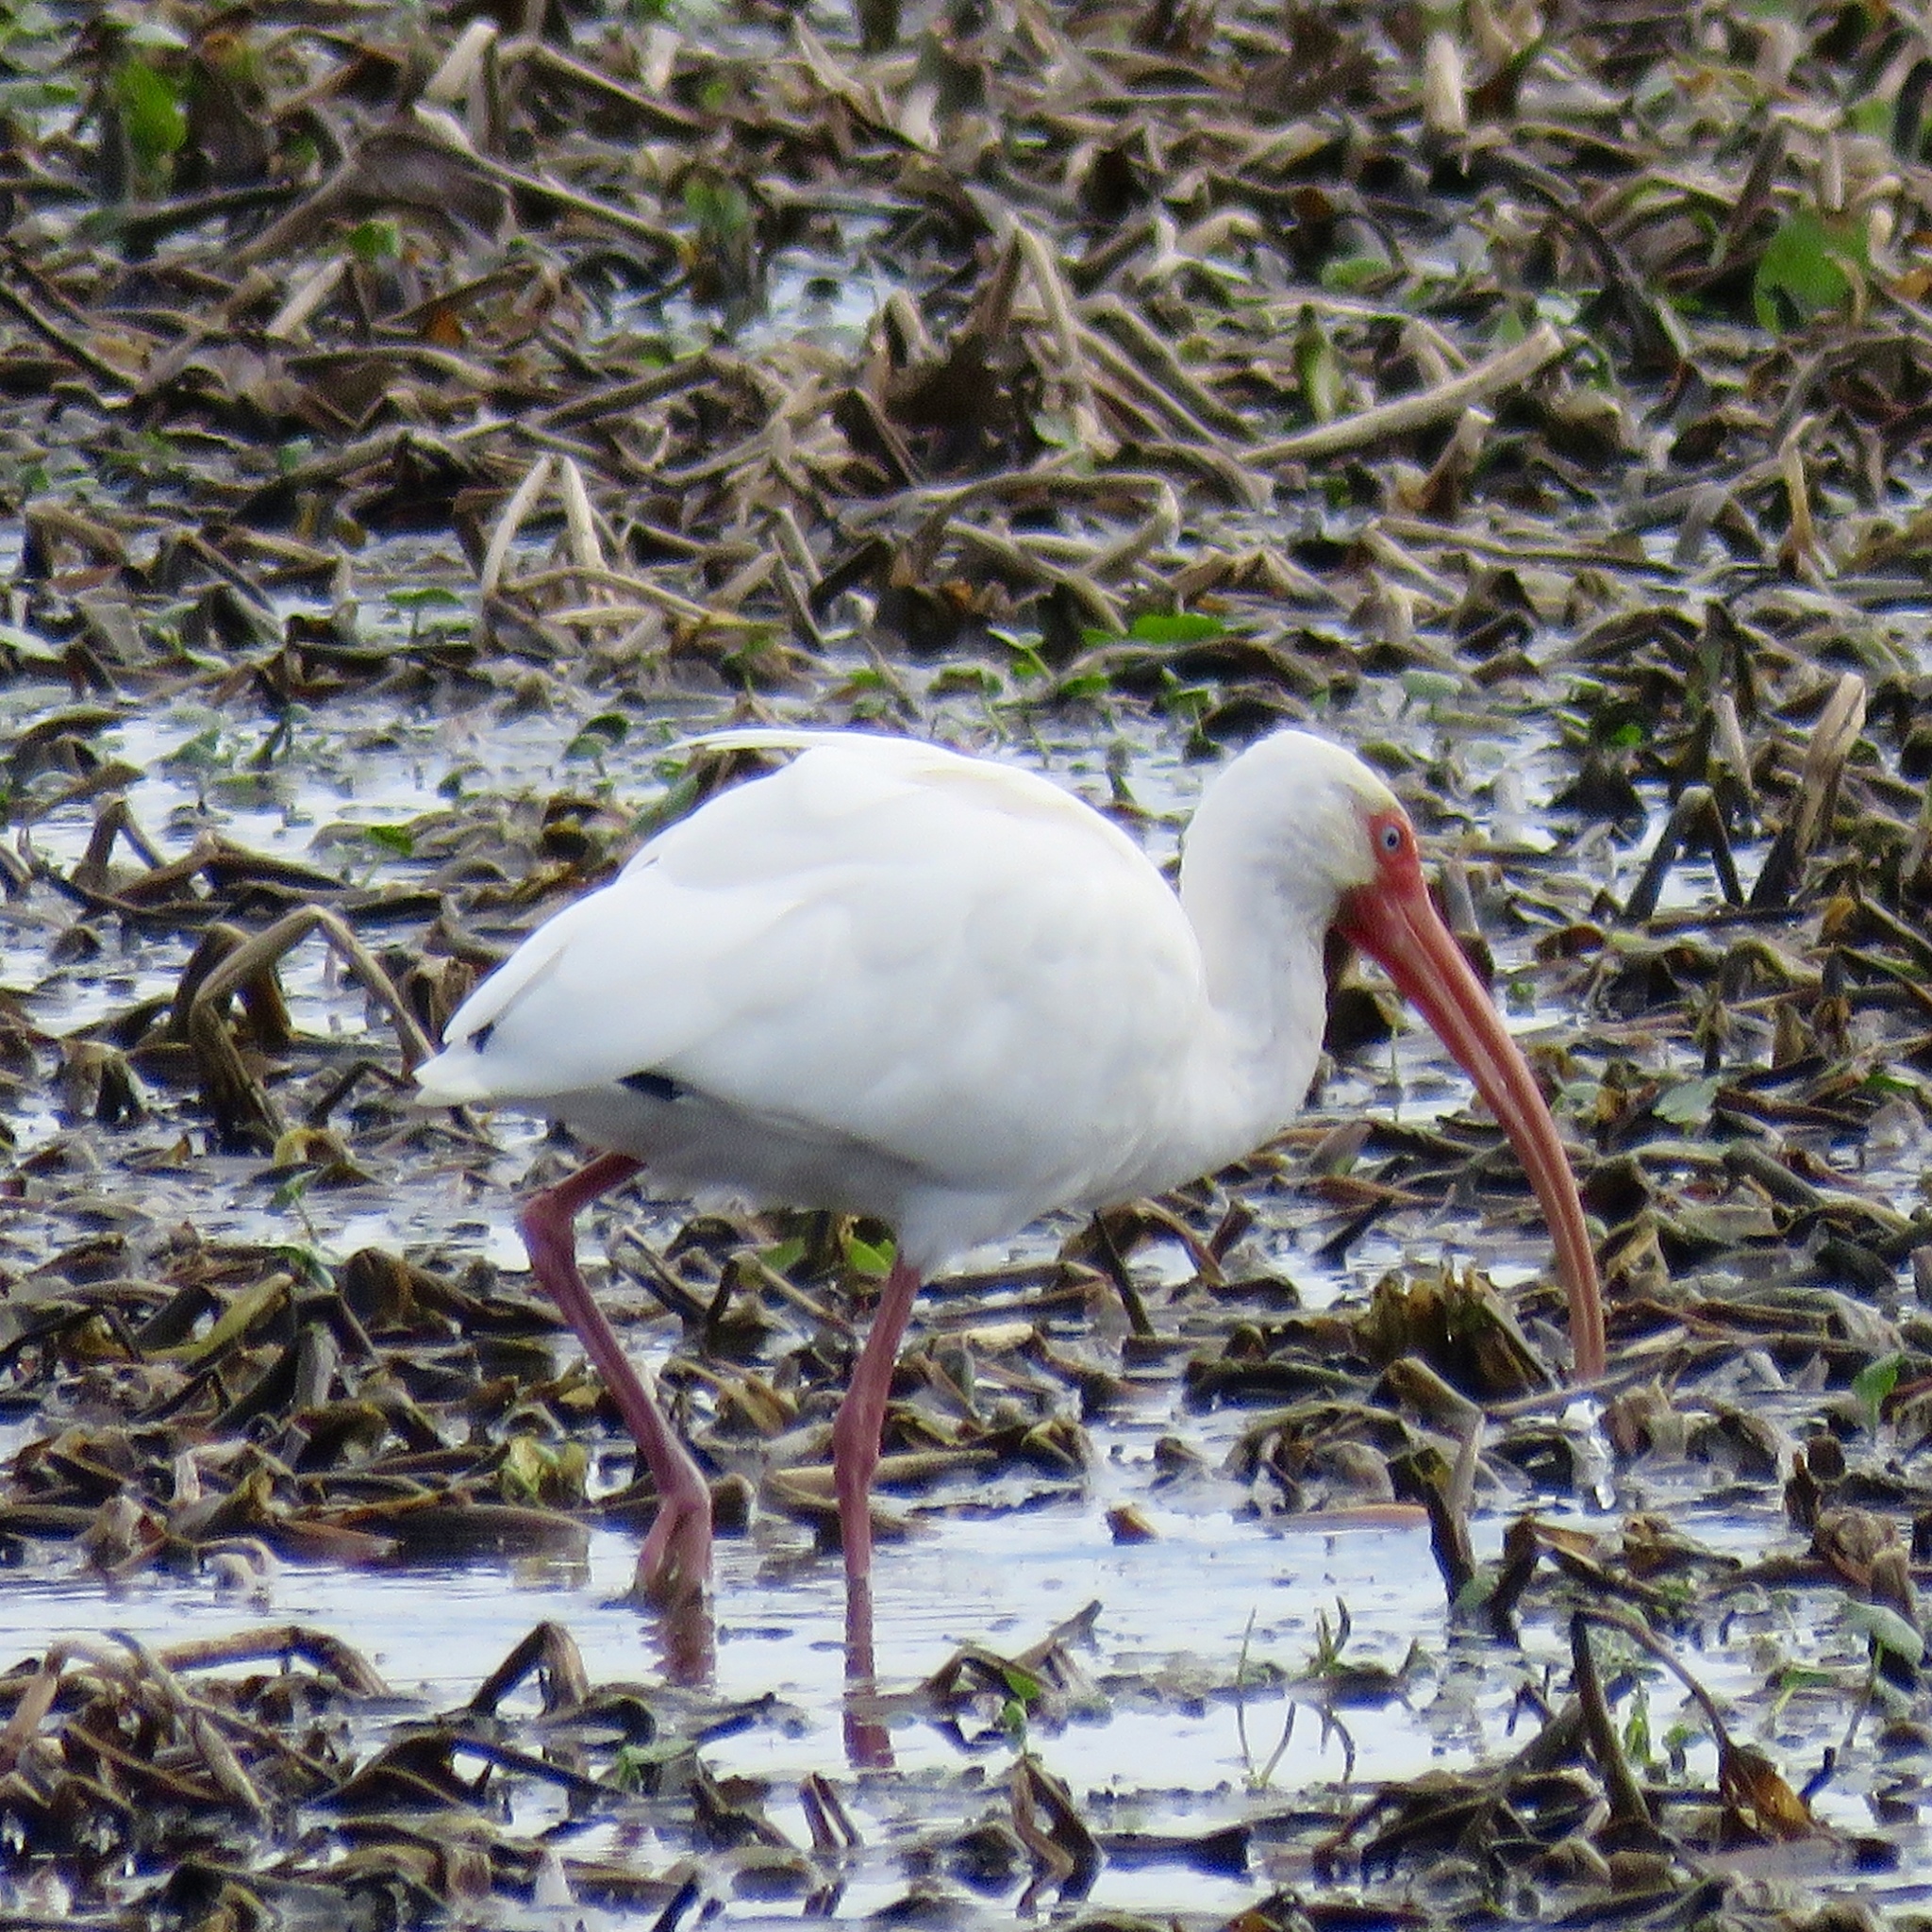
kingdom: Animalia
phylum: Chordata
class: Aves
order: Pelecaniformes
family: Threskiornithidae
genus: Eudocimus
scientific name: Eudocimus albus
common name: White ibis
